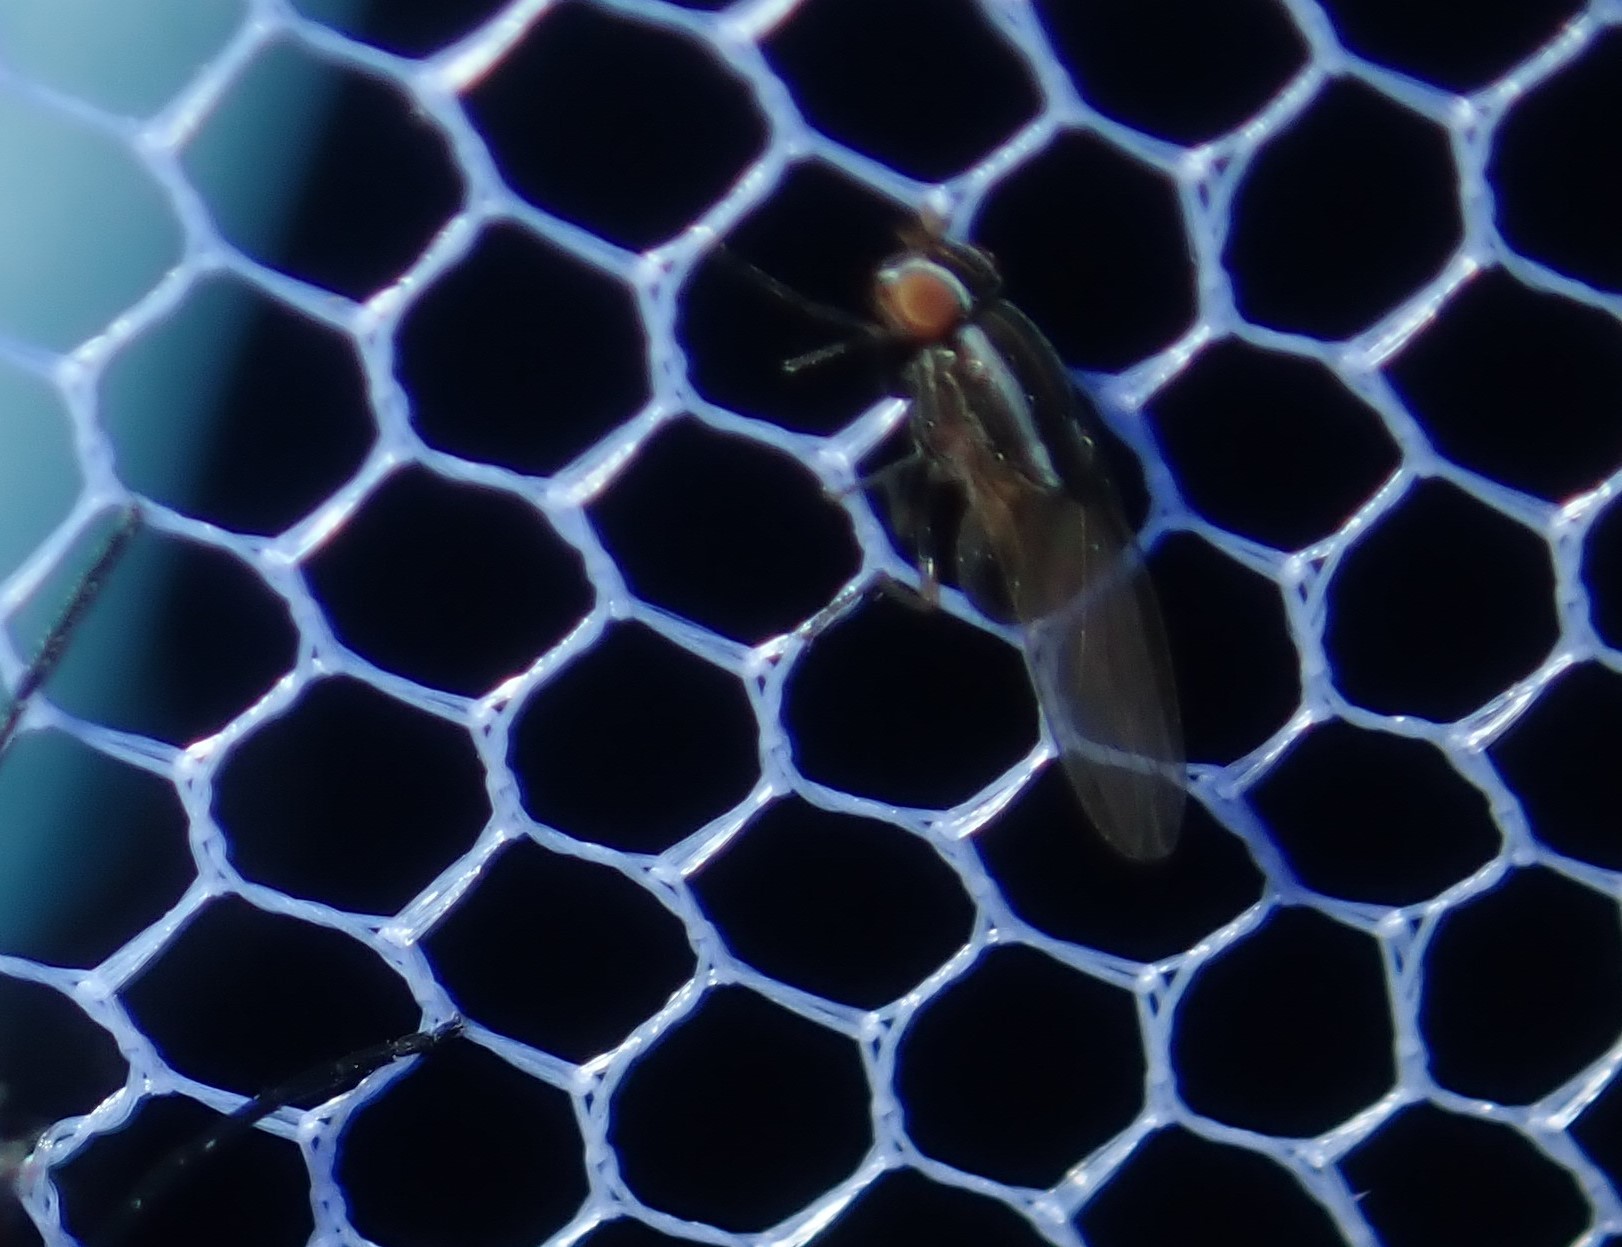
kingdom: Animalia
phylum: Arthropoda
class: Insecta
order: Diptera
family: Lauxaniidae
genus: Poecilohetaerus
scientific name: Poecilohetaerus aquilus
